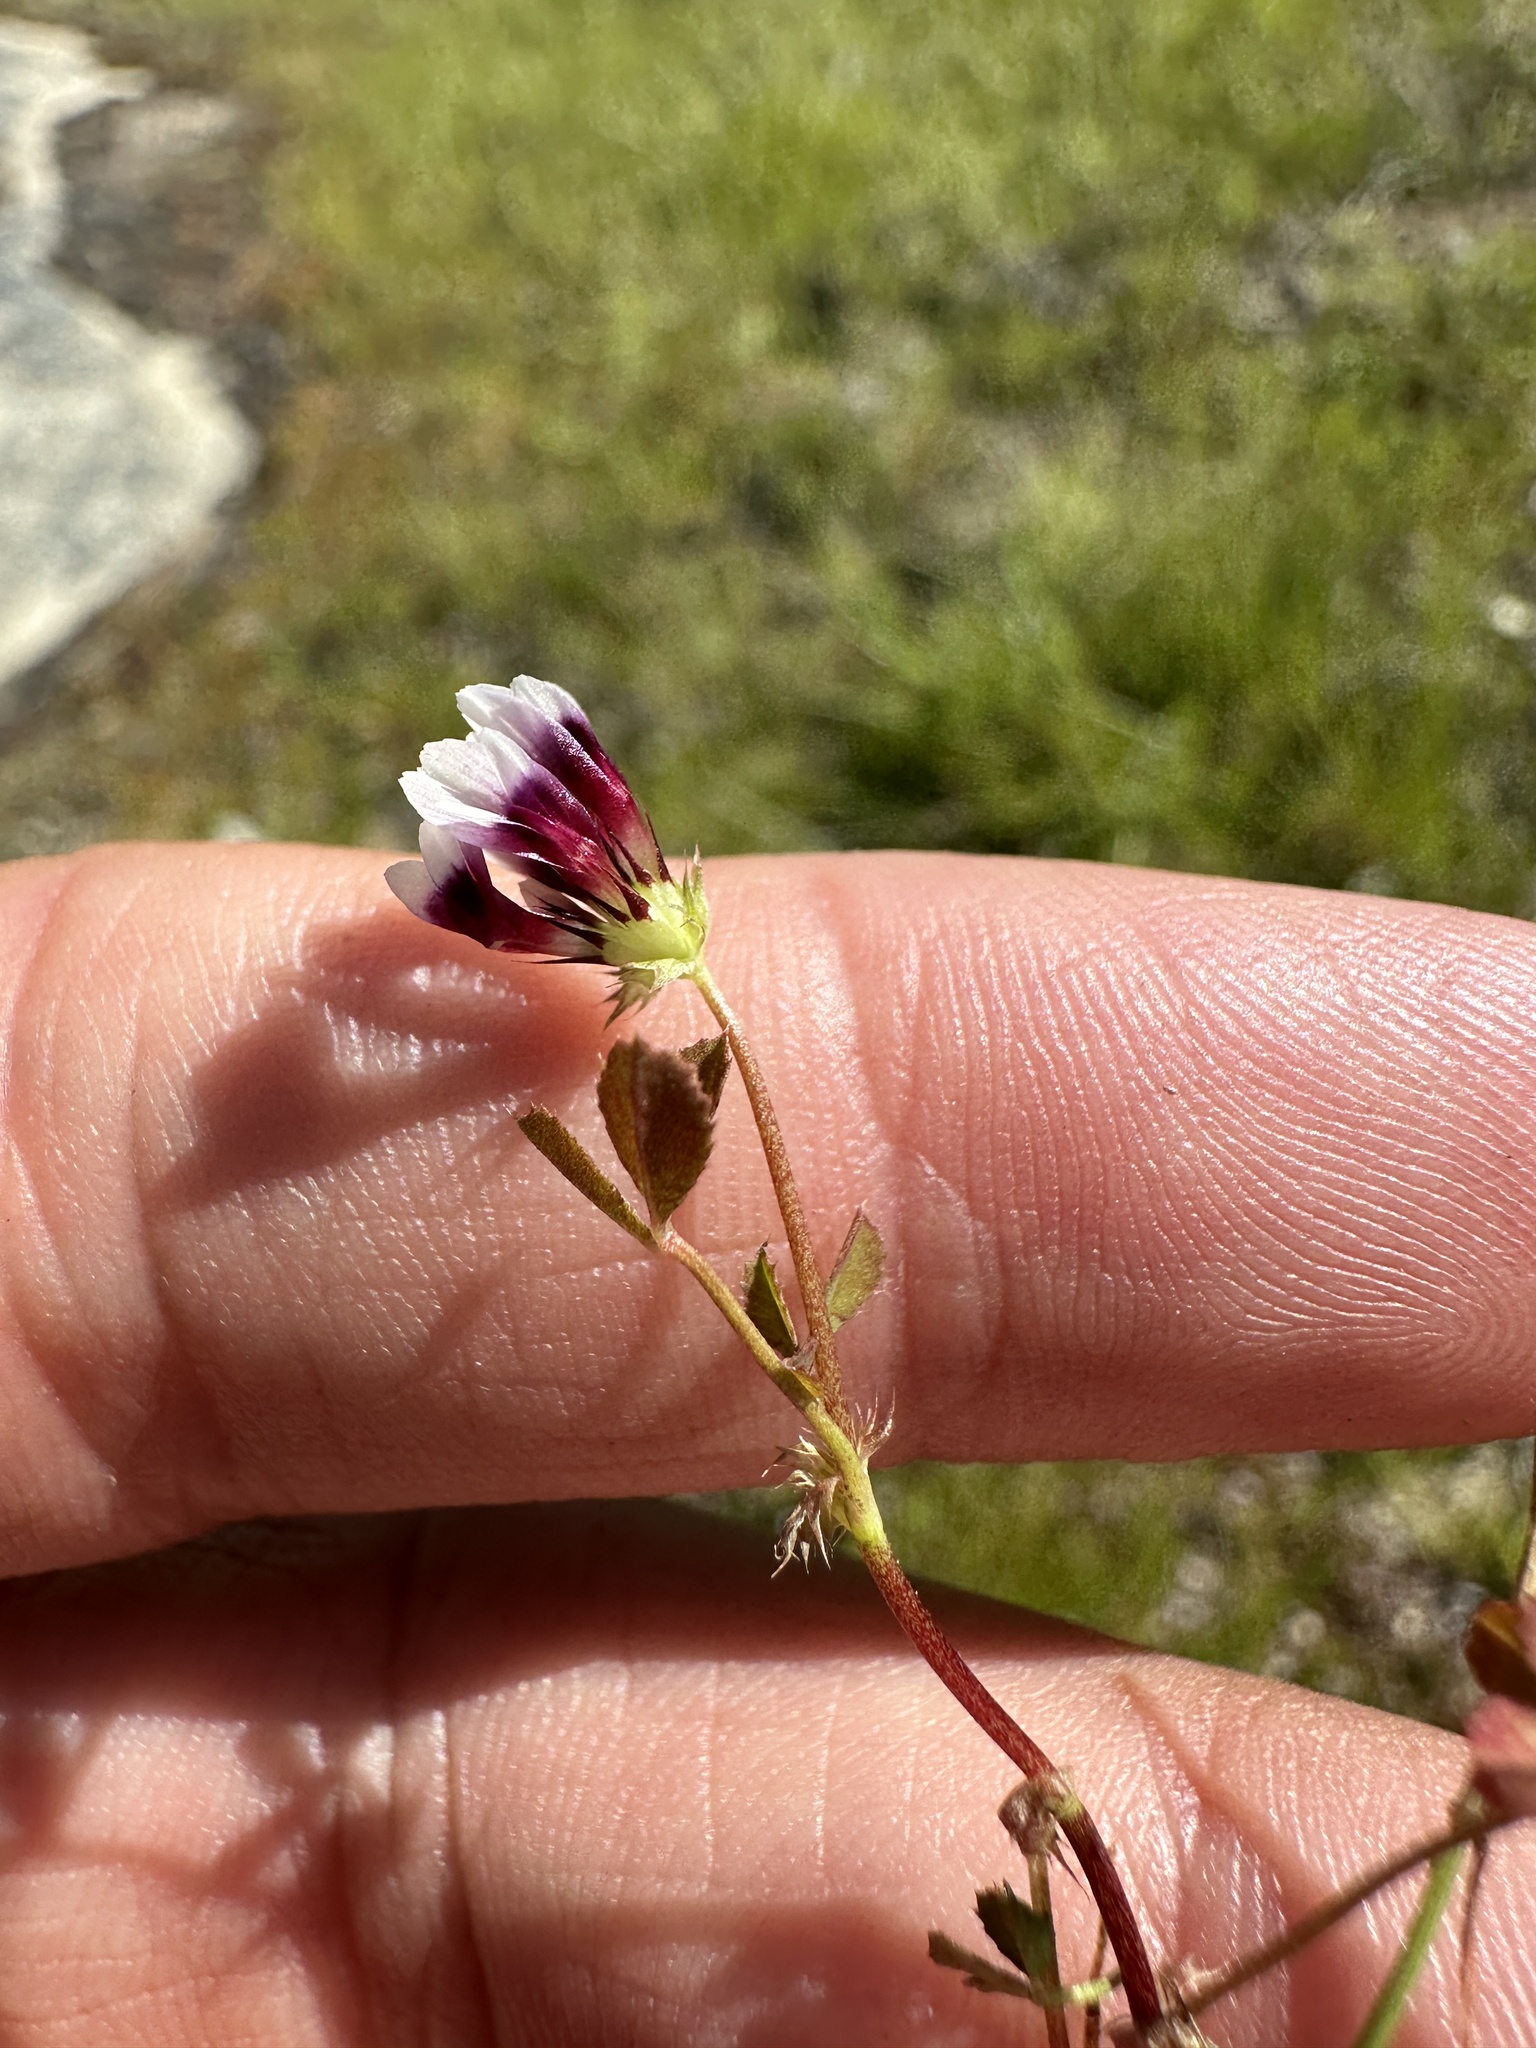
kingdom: Plantae
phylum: Tracheophyta
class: Magnoliopsida
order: Fabales
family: Fabaceae
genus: Trifolium
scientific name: Trifolium variegatum
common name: Whitetip clover
